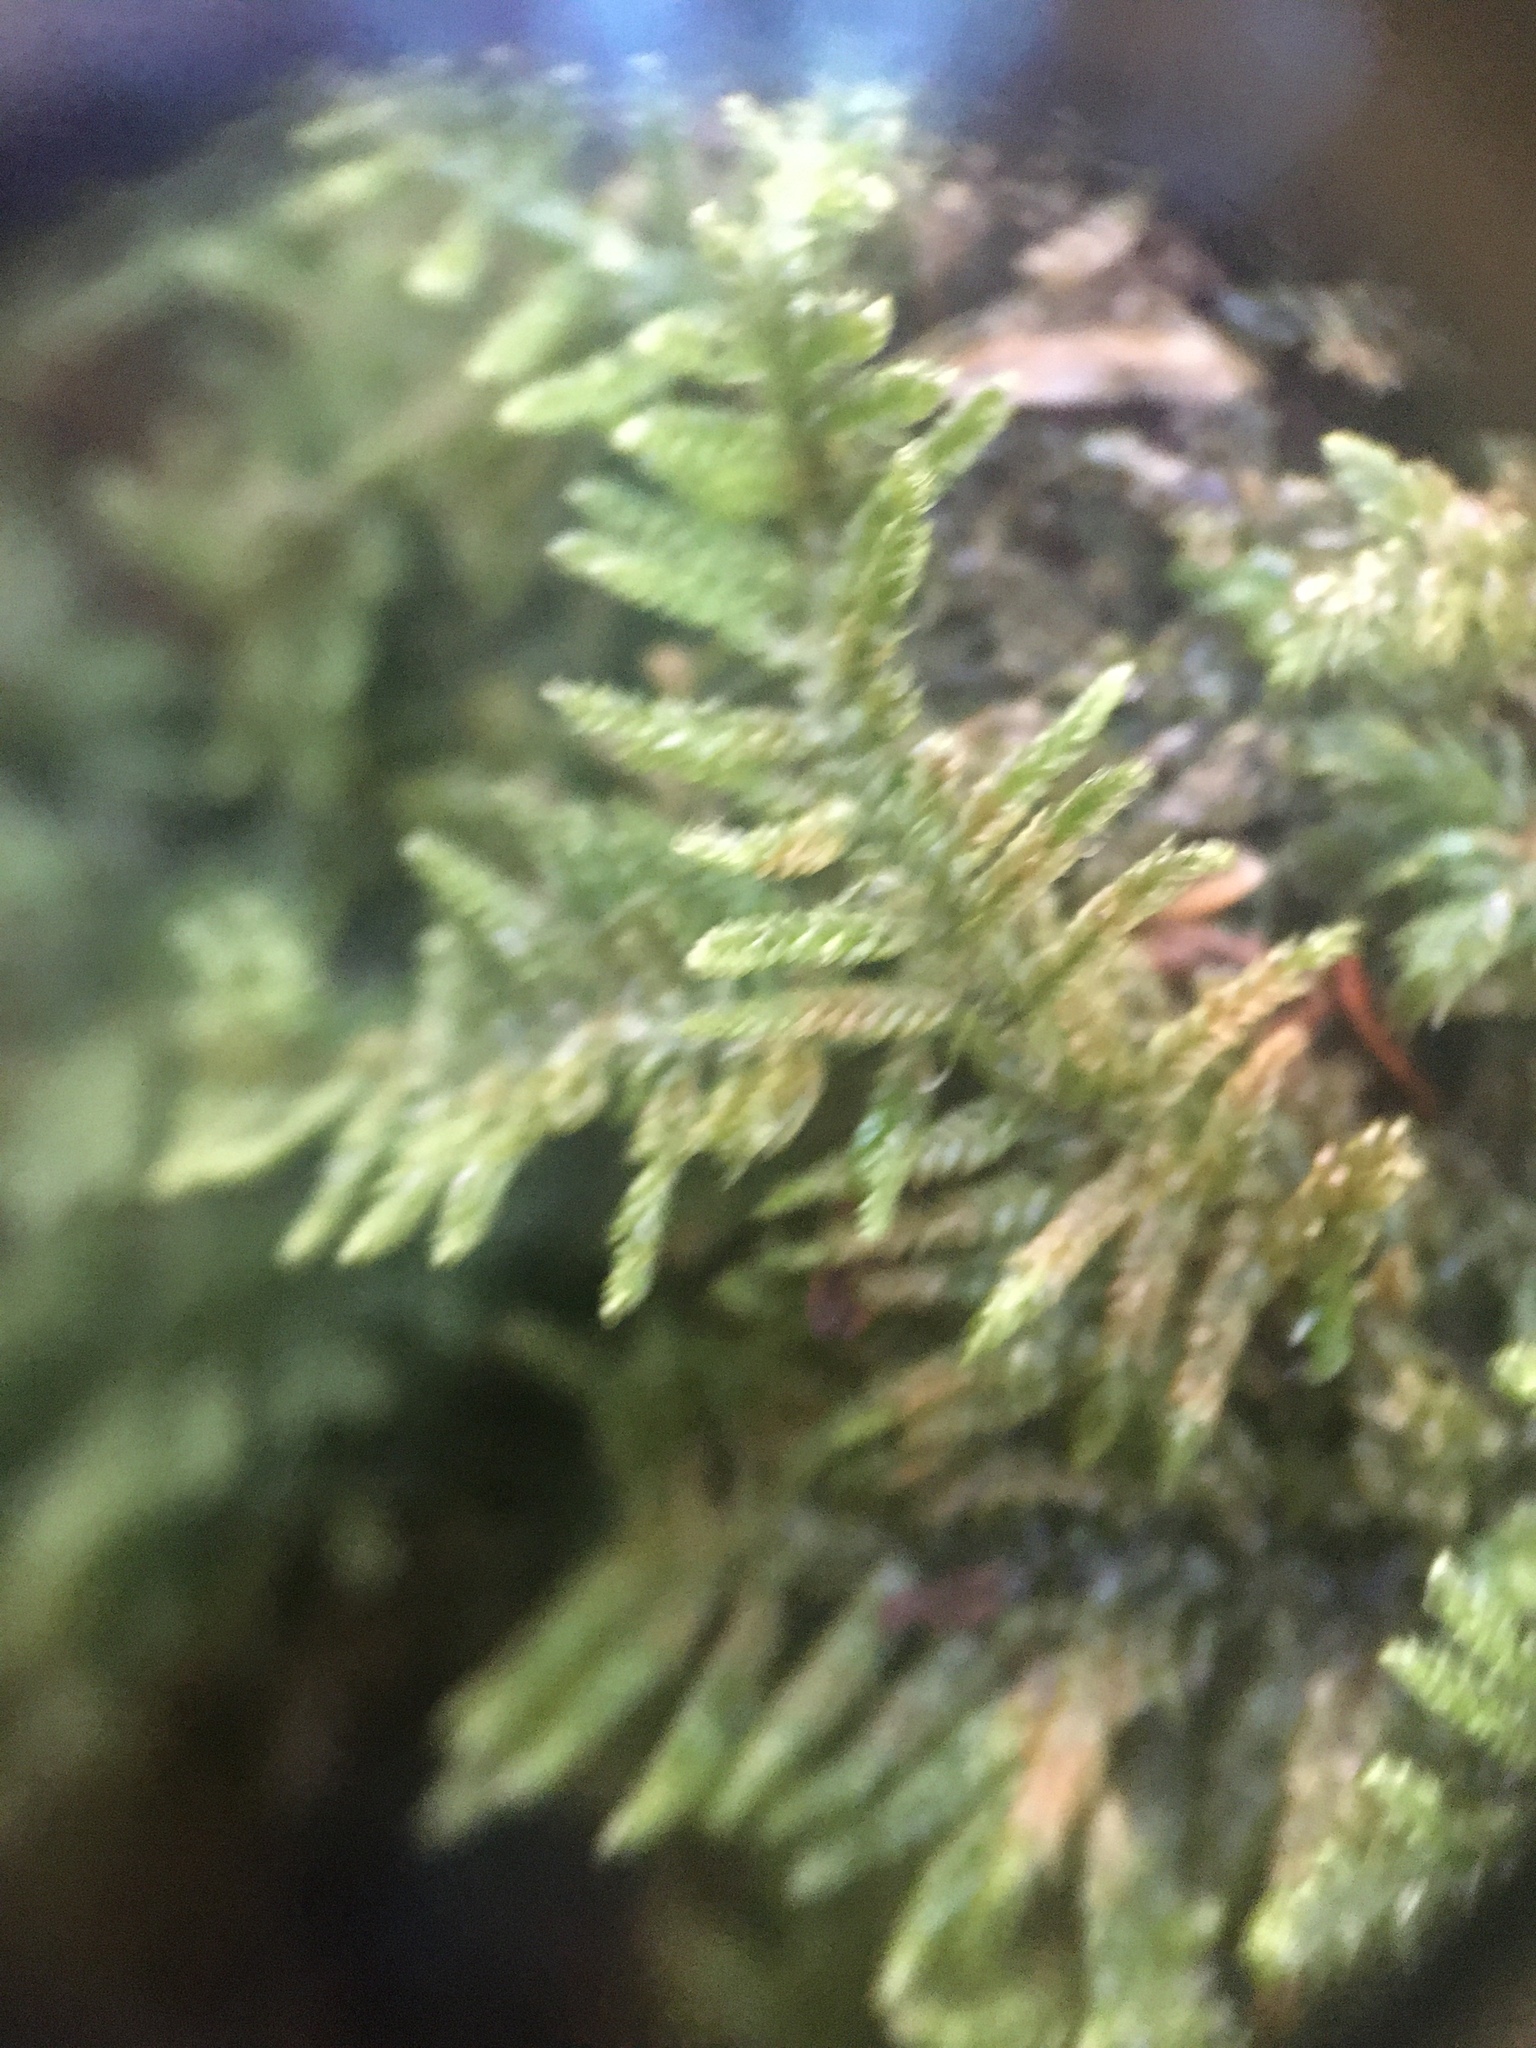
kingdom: Plantae
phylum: Bryophyta
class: Bryopsida
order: Hypnales
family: Callicladiaceae
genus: Callicladium
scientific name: Callicladium imponens
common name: Brocade moss
